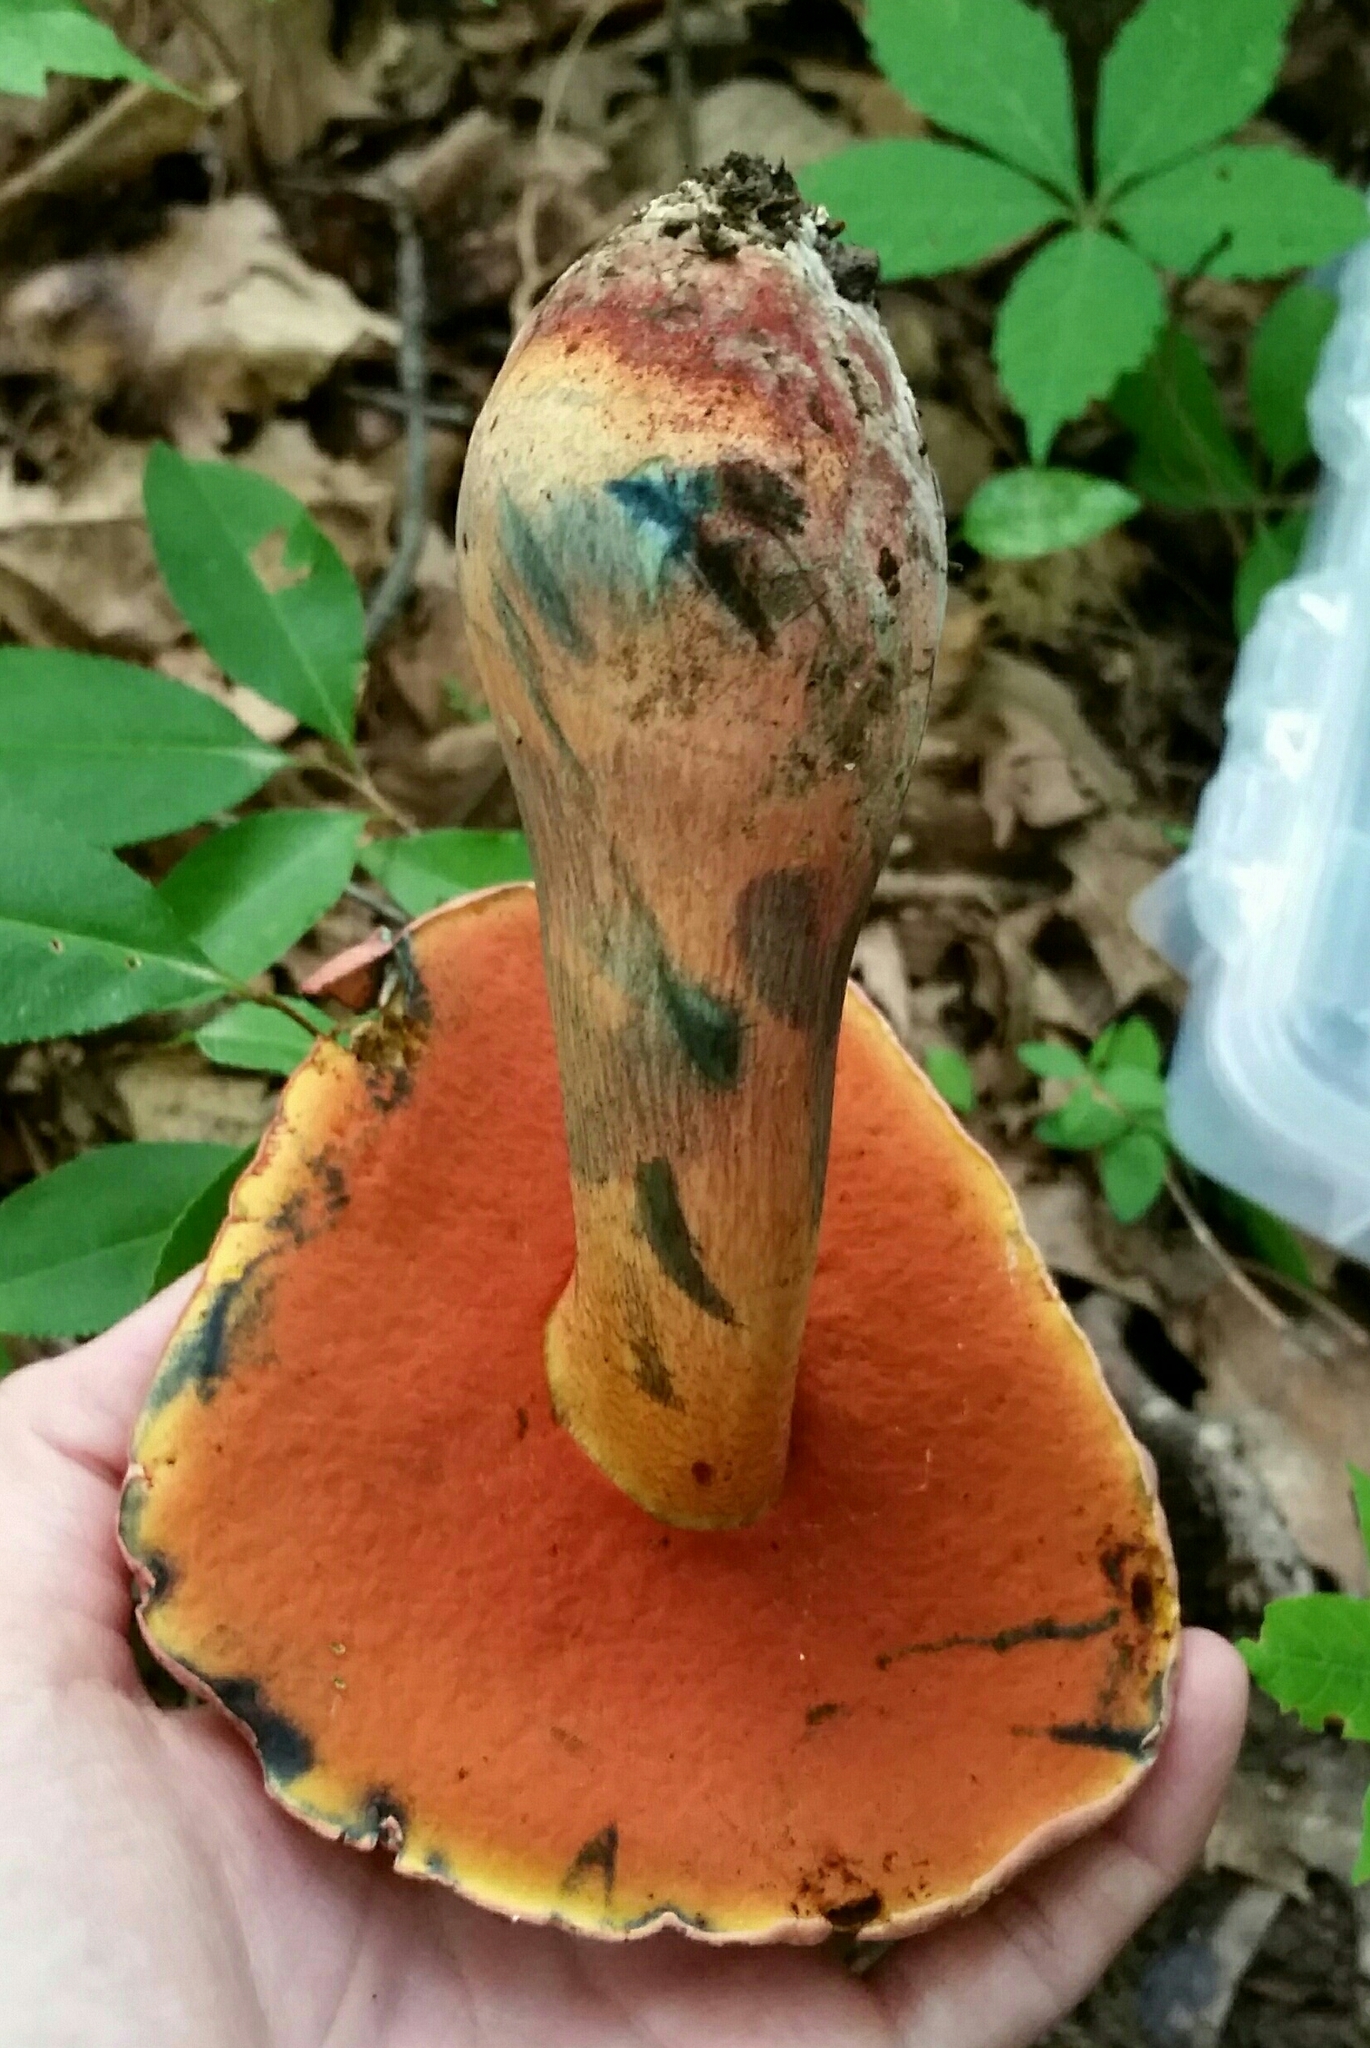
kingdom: Fungi
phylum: Basidiomycota
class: Agaricomycetes
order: Boletales
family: Boletaceae
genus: Rubroboletus
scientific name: Rubroboletus rhodosanguineus
